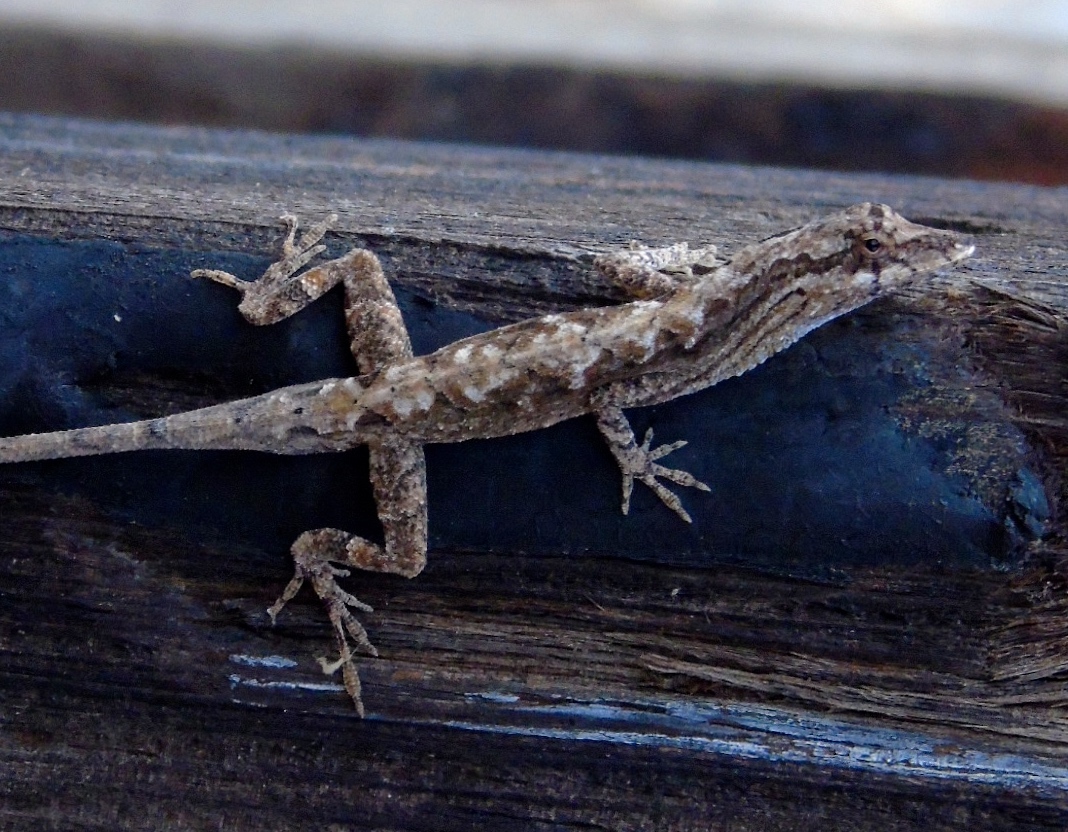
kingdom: Animalia
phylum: Chordata
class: Squamata
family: Dactyloidae
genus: Anolis
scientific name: Anolis nebulosus
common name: Clouded anole
